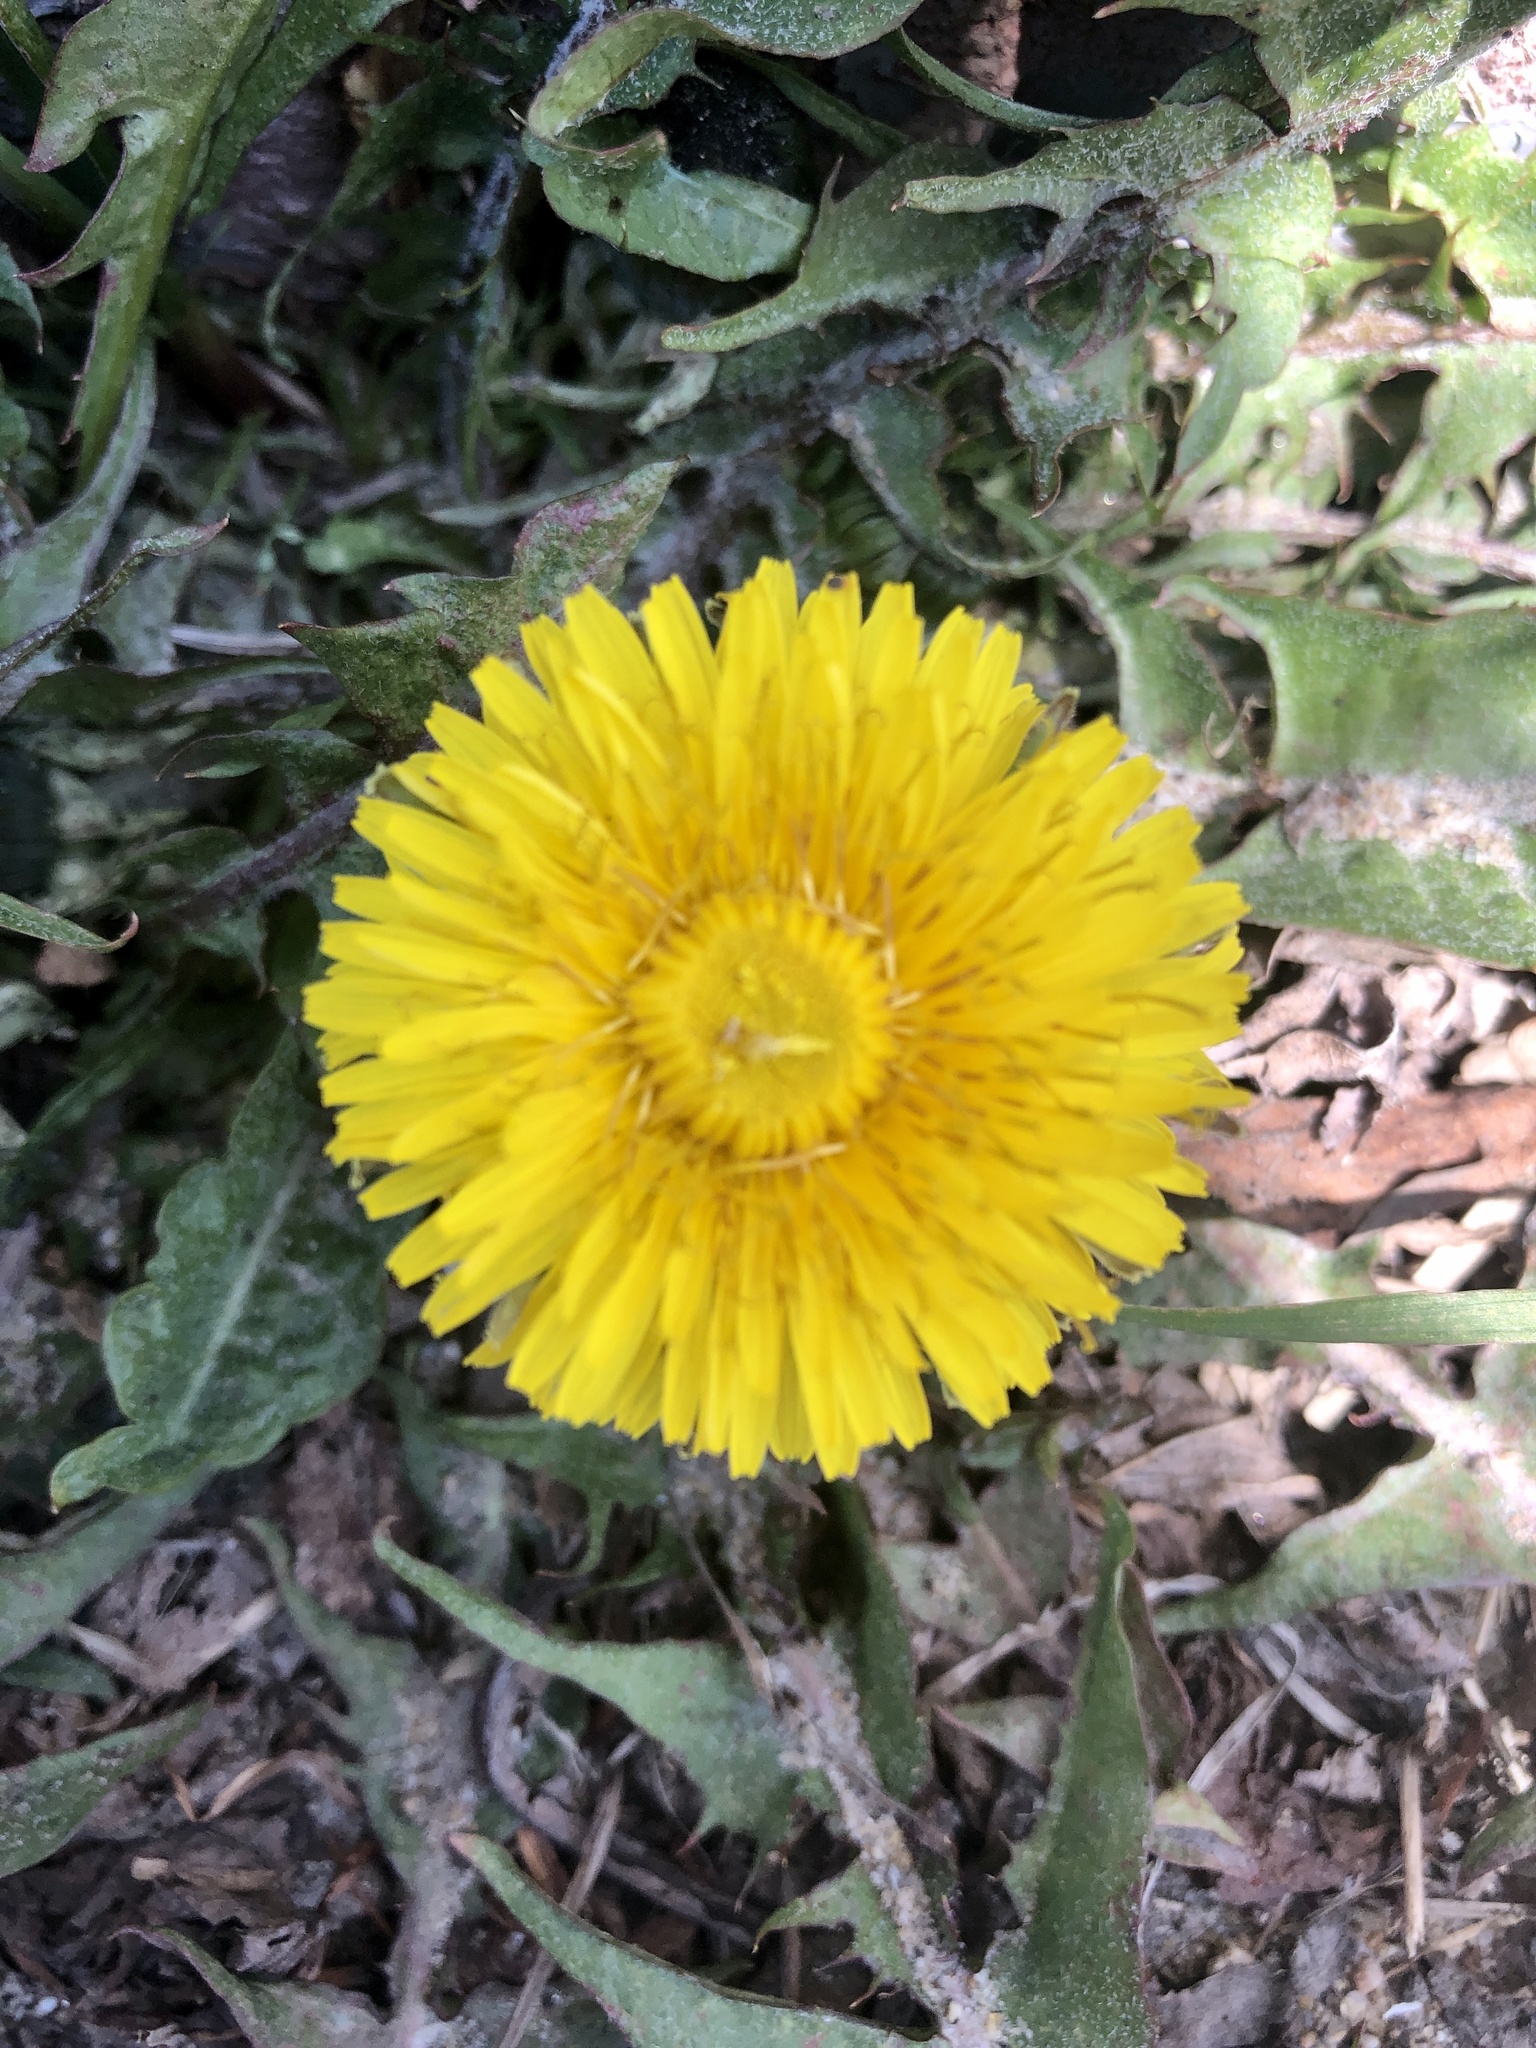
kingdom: Plantae
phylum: Tracheophyta
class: Magnoliopsida
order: Asterales
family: Asteraceae
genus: Taraxacum
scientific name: Taraxacum officinale
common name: Common dandelion
